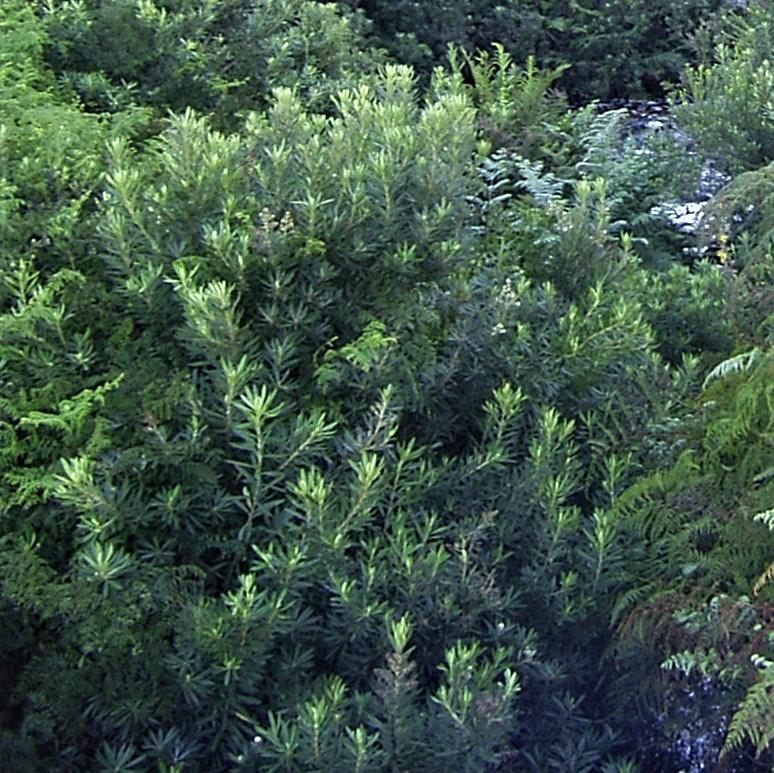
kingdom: Plantae
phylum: Tracheophyta
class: Magnoliopsida
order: Asterales
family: Asteraceae
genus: Brachylaena
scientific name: Brachylaena neriifolia
